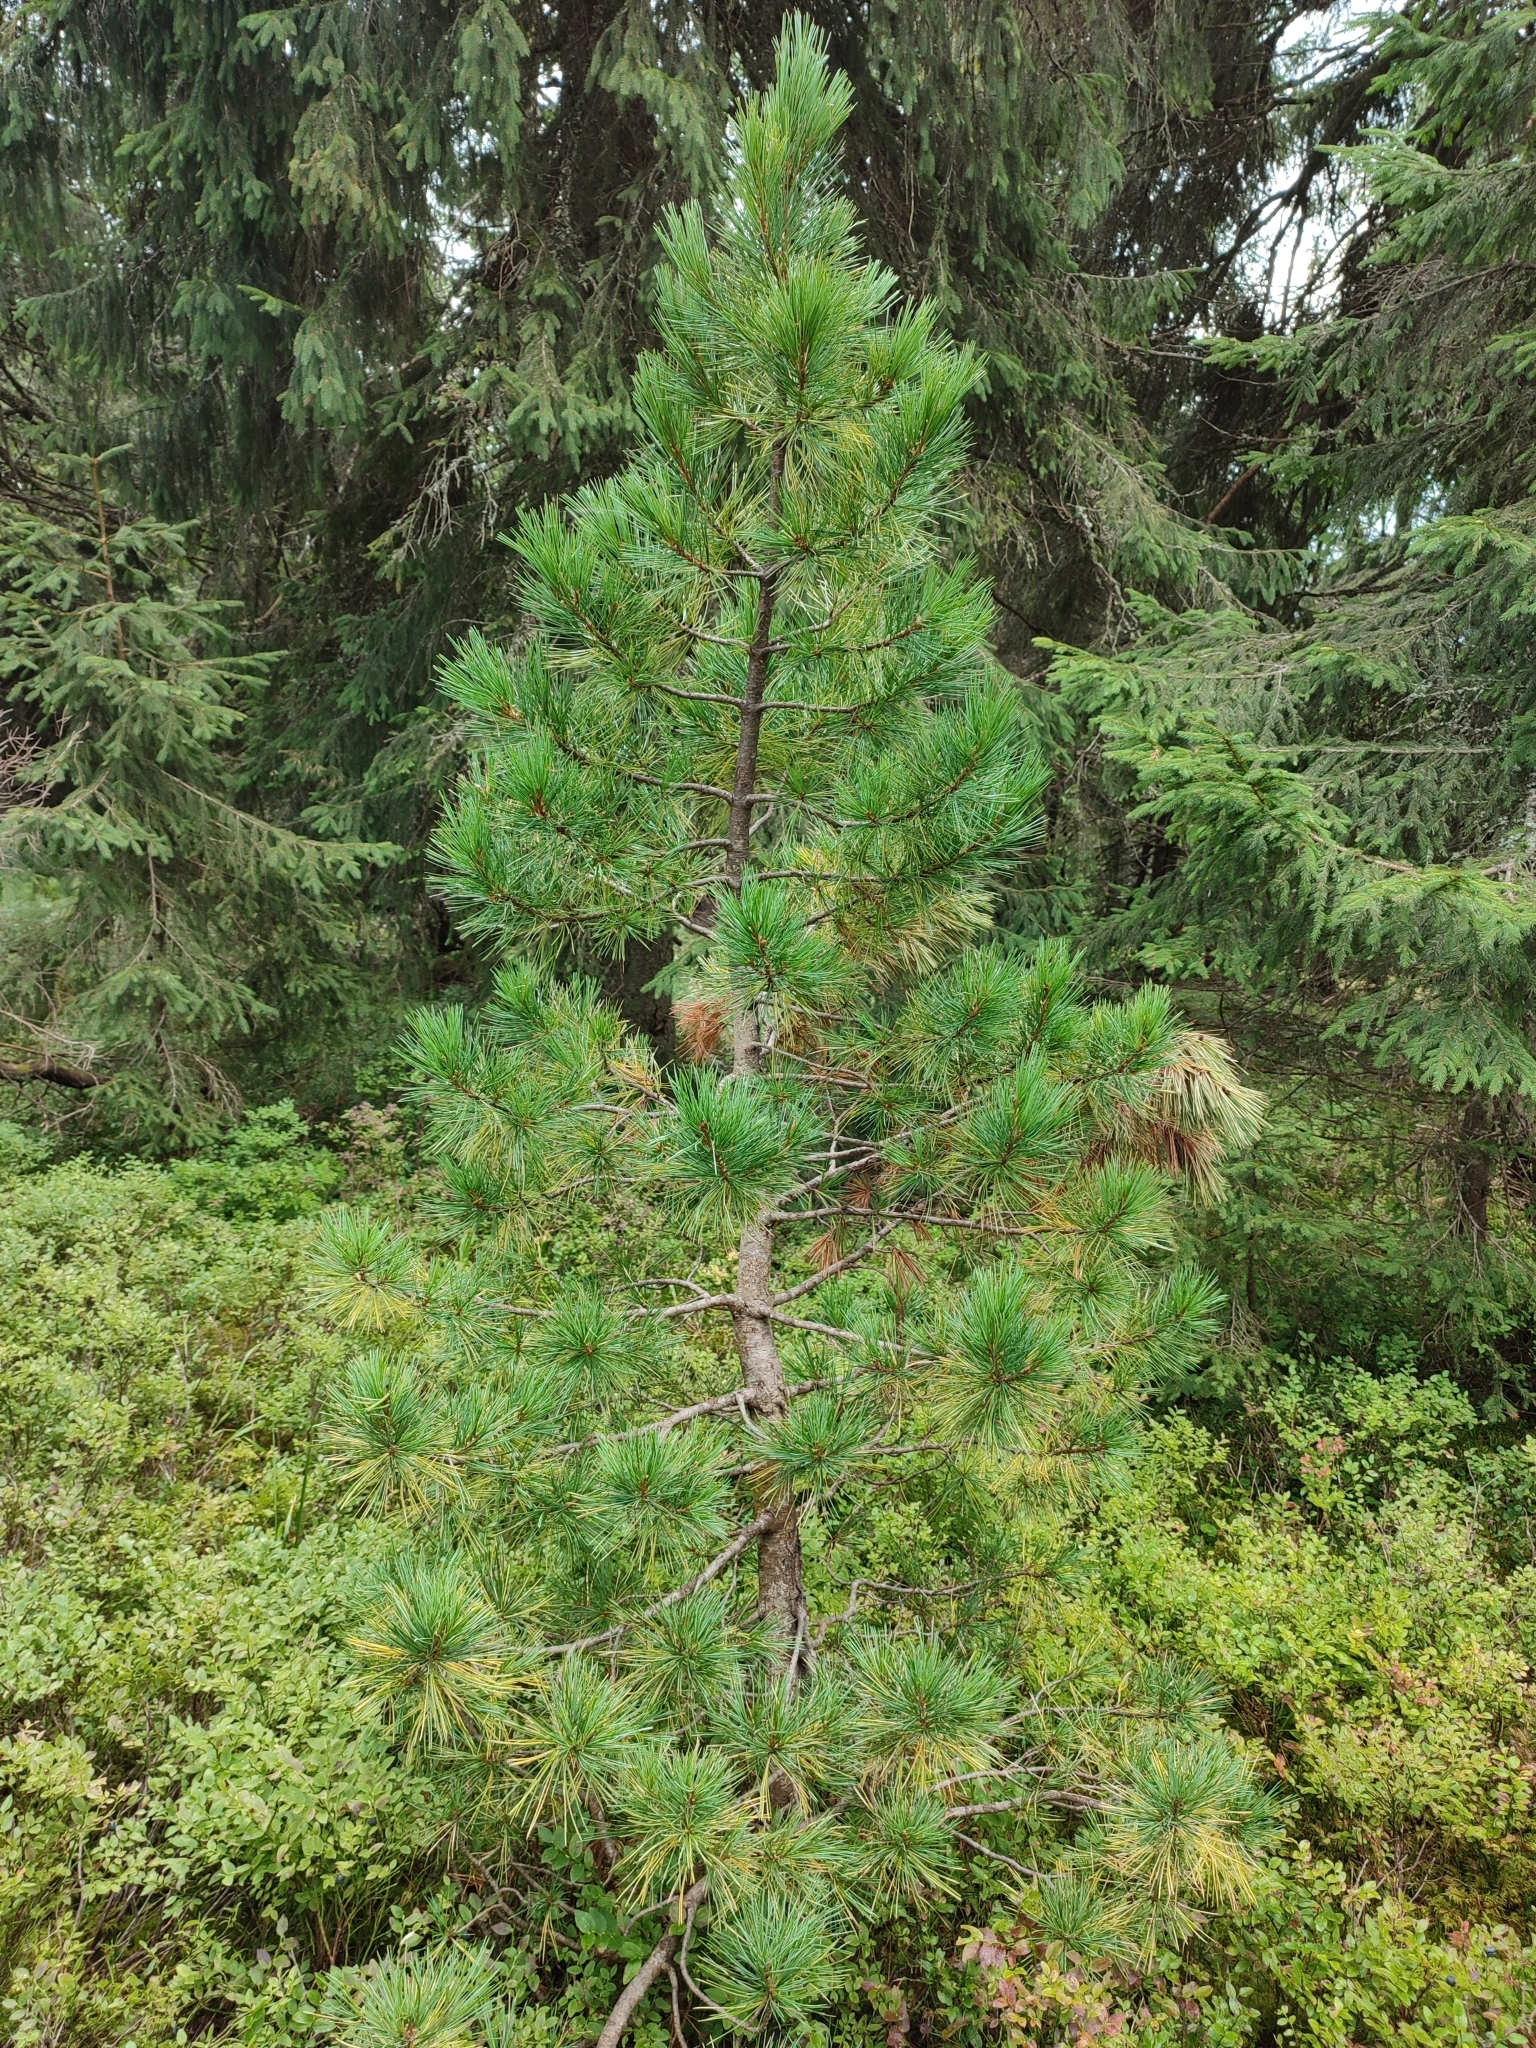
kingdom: Plantae
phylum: Tracheophyta
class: Pinopsida
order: Pinales
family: Pinaceae
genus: Pinus
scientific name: Pinus cembra
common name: Arolla pine
